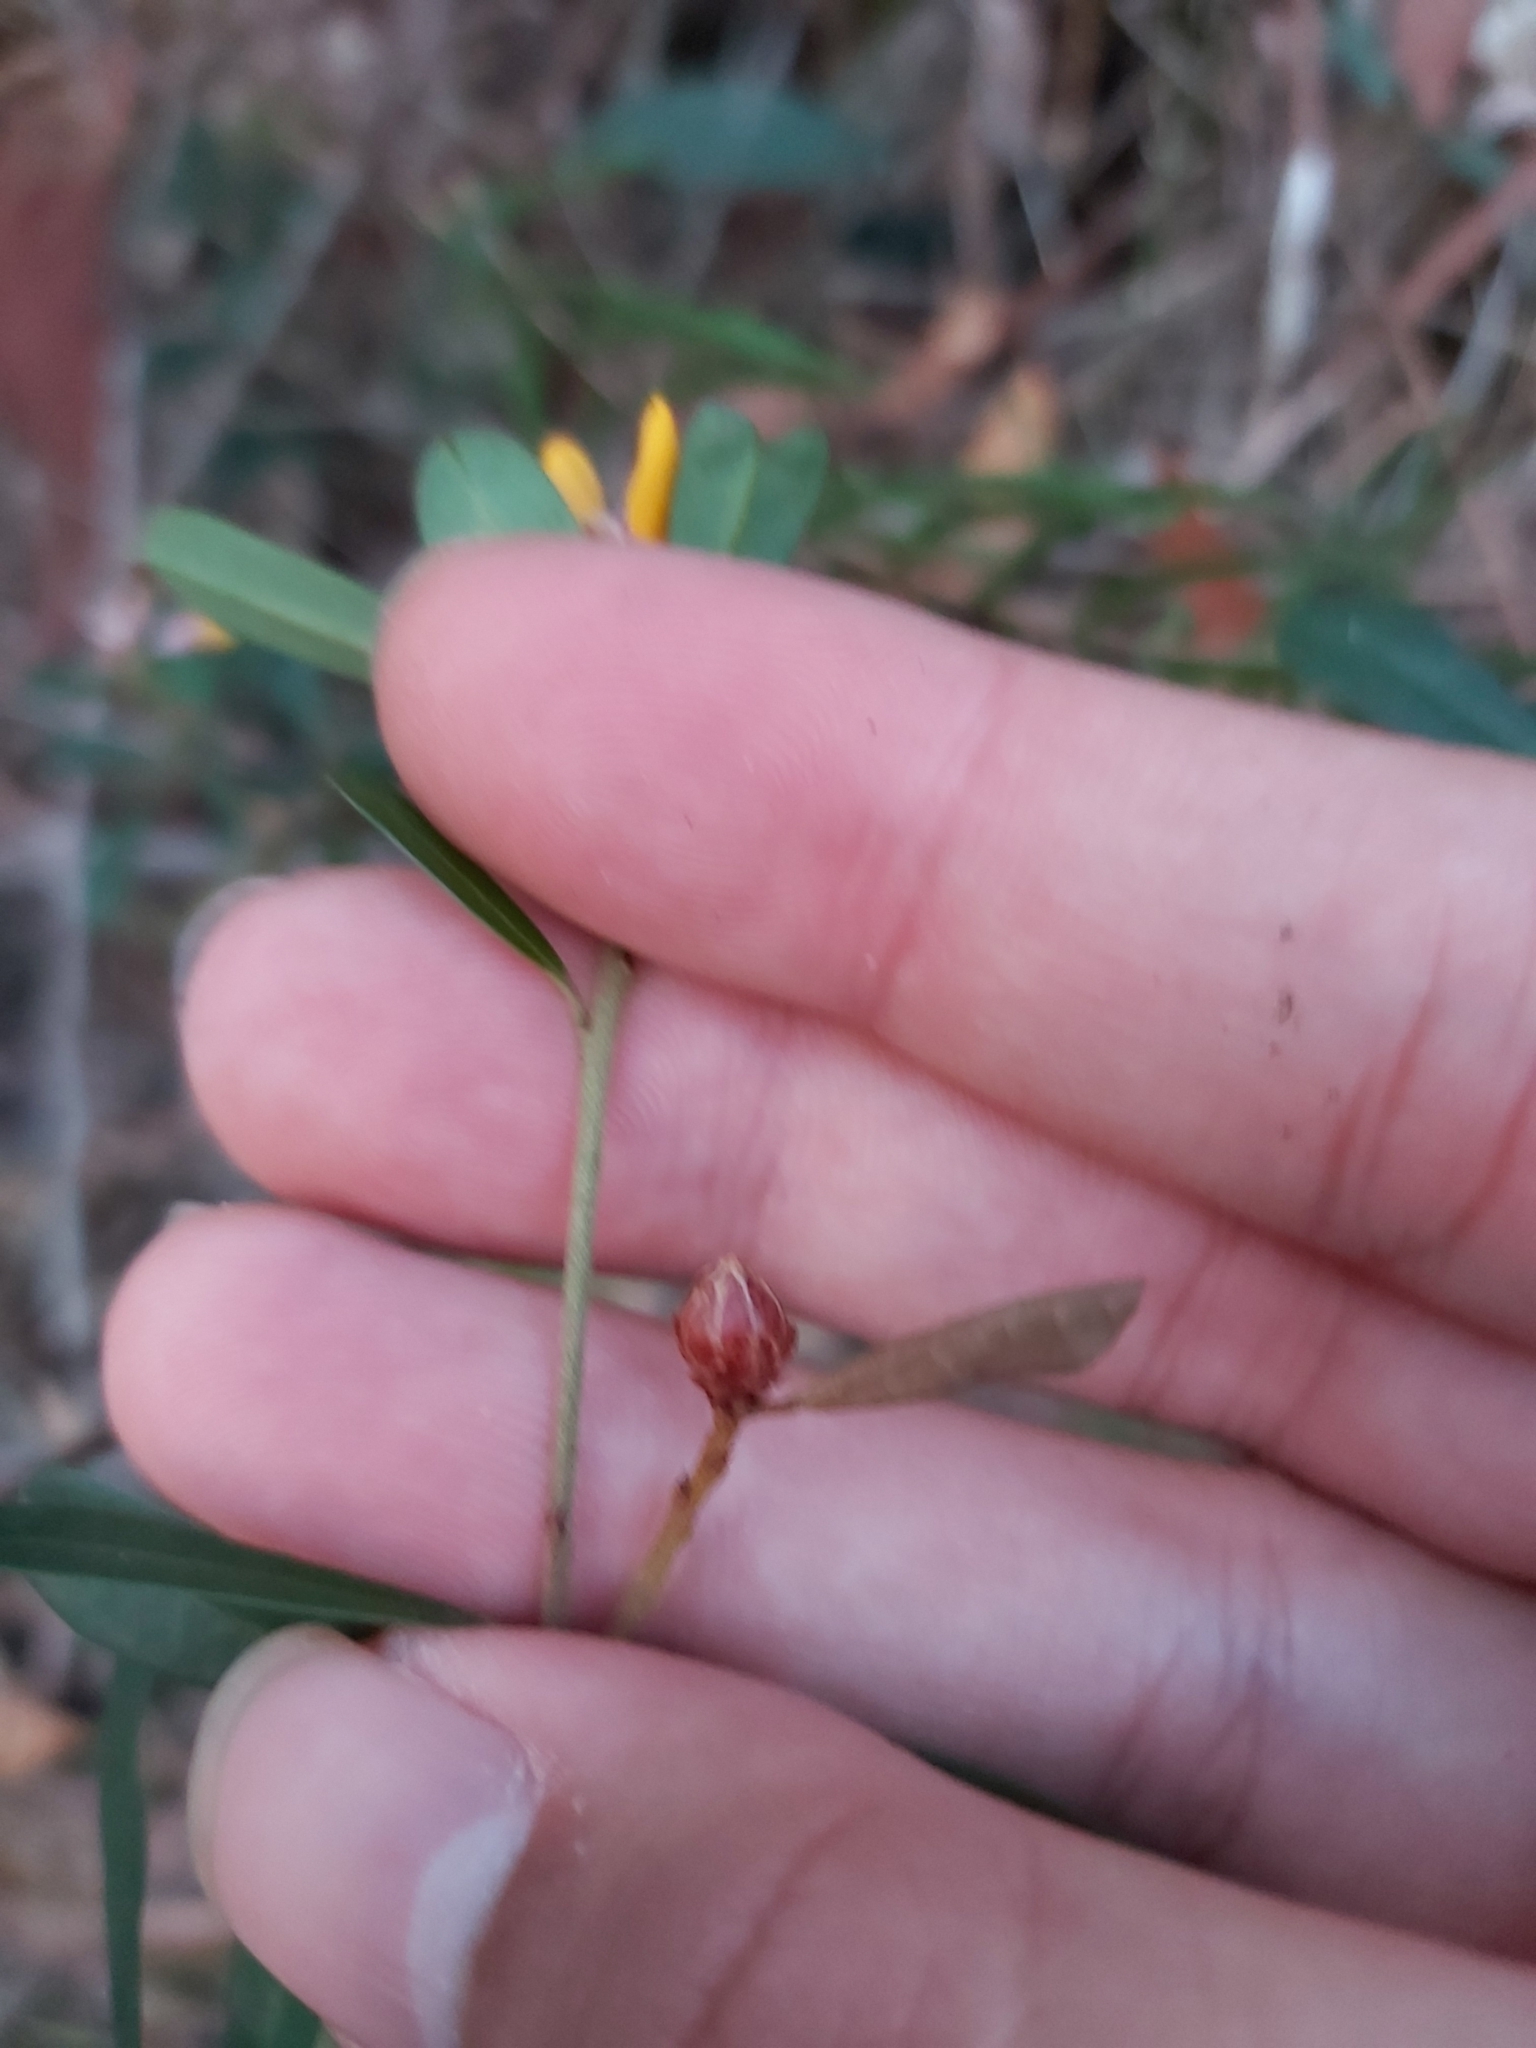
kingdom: Plantae
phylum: Tracheophyta
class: Magnoliopsida
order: Fabales
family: Fabaceae
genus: Pultenaea
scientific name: Pultenaea daphnoides
